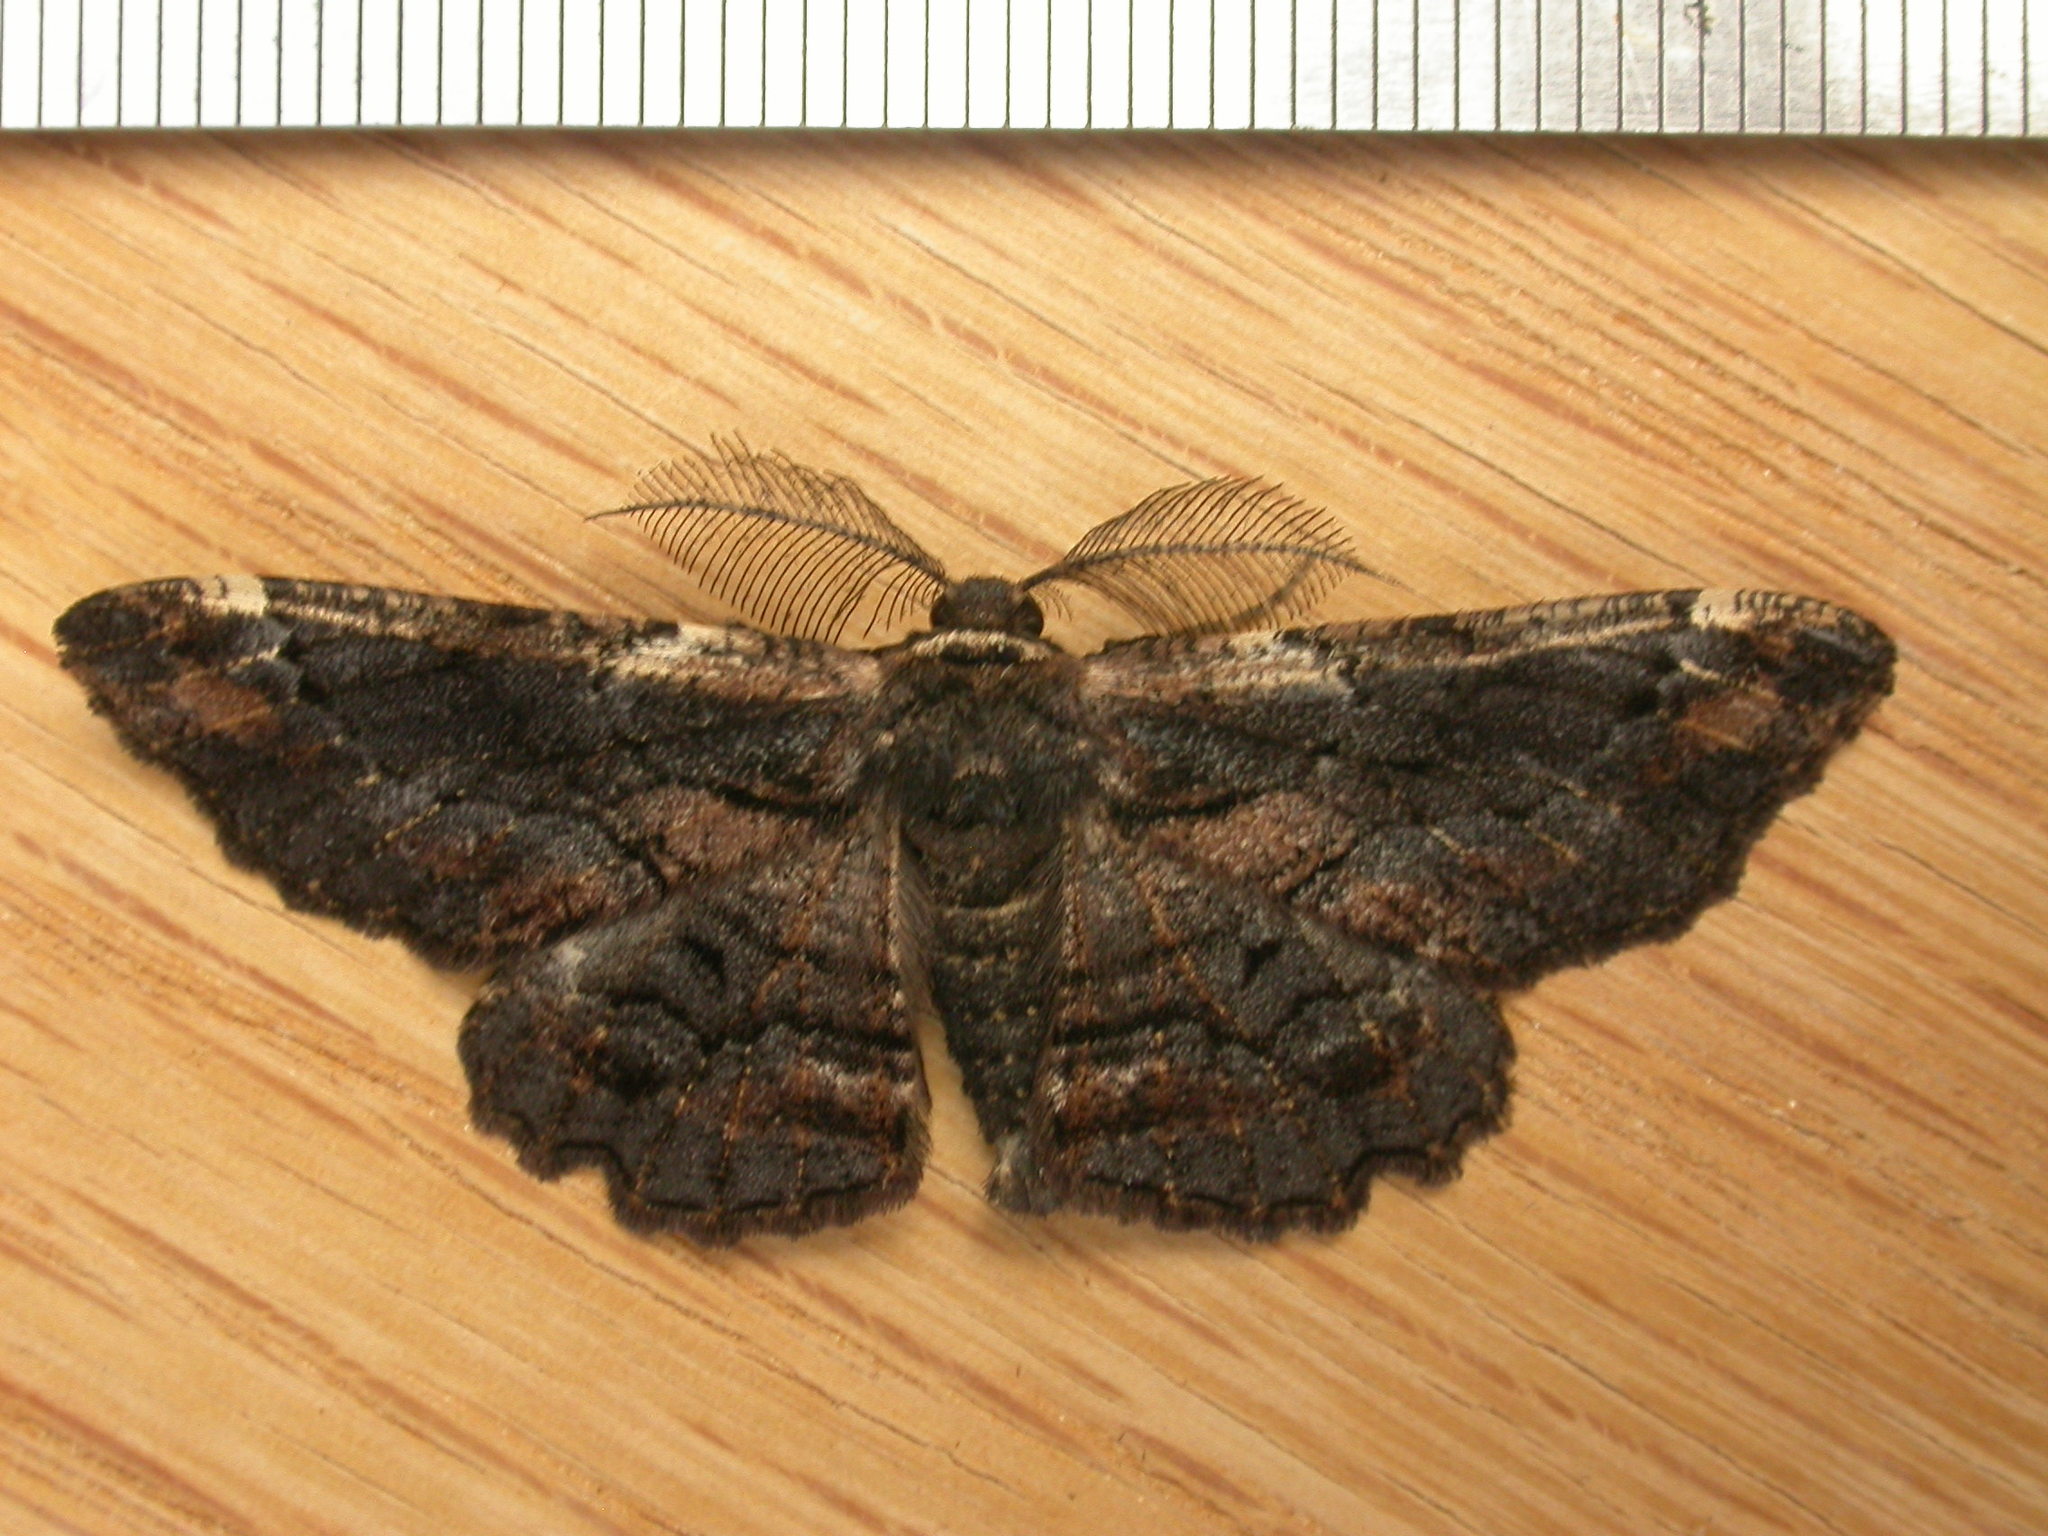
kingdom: Animalia
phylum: Arthropoda
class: Insecta
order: Lepidoptera
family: Geometridae
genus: Pholodes
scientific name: Pholodes sinistraria
